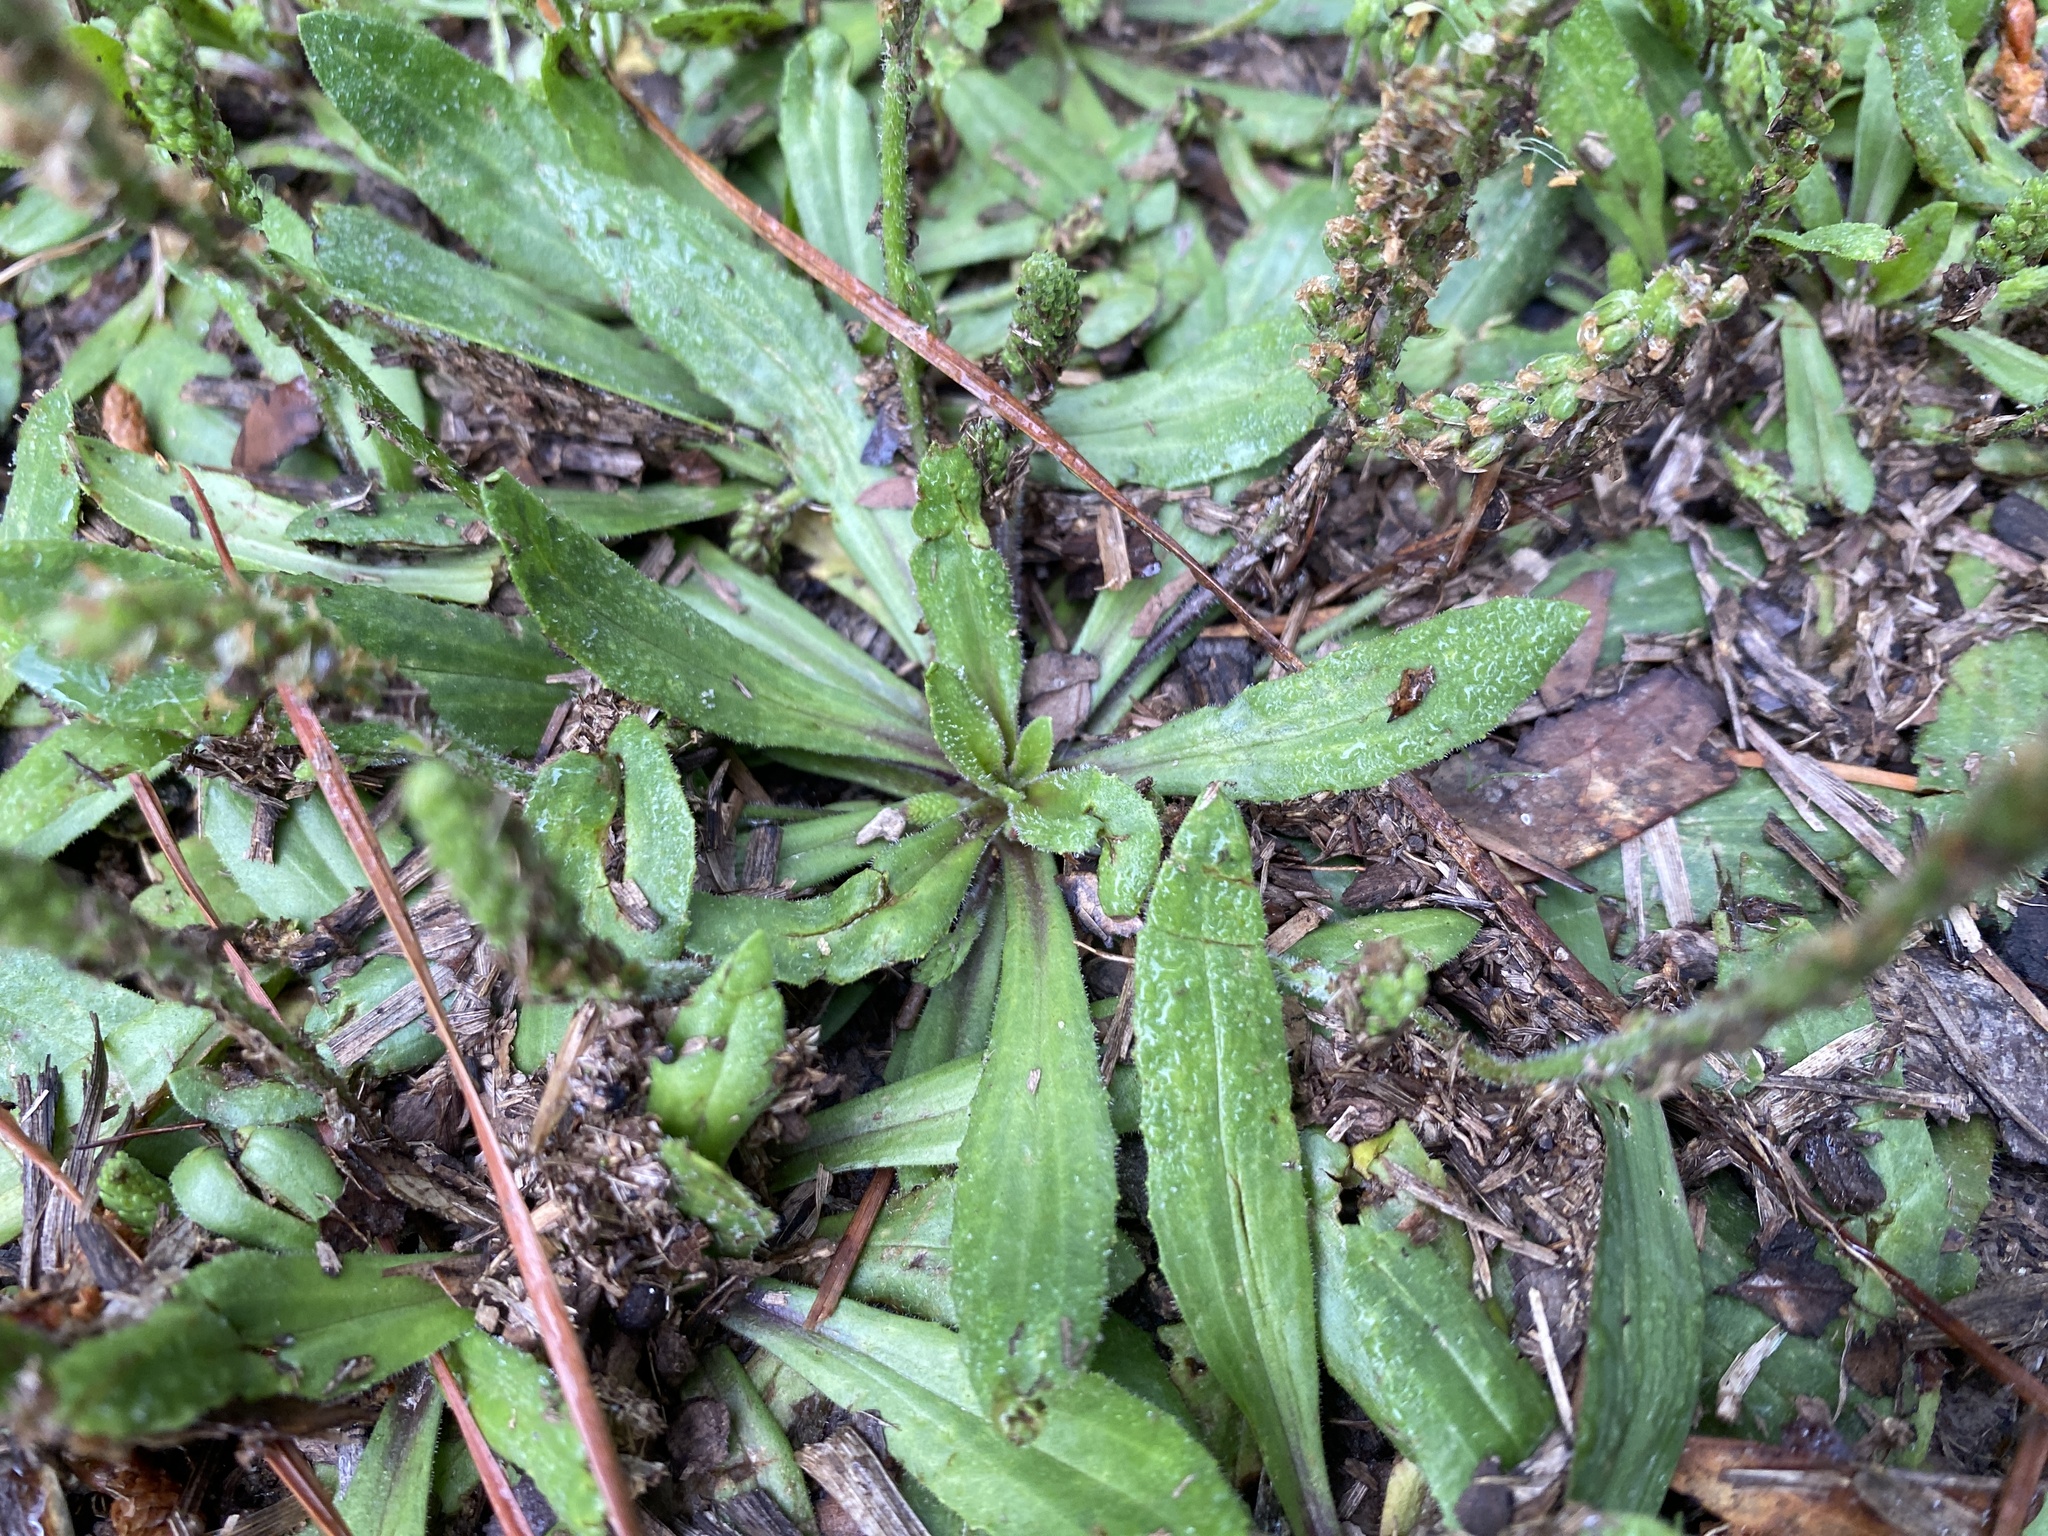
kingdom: Plantae
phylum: Tracheophyta
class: Magnoliopsida
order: Lamiales
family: Plantaginaceae
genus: Plantago
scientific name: Plantago virginica
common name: Hoary plantain
